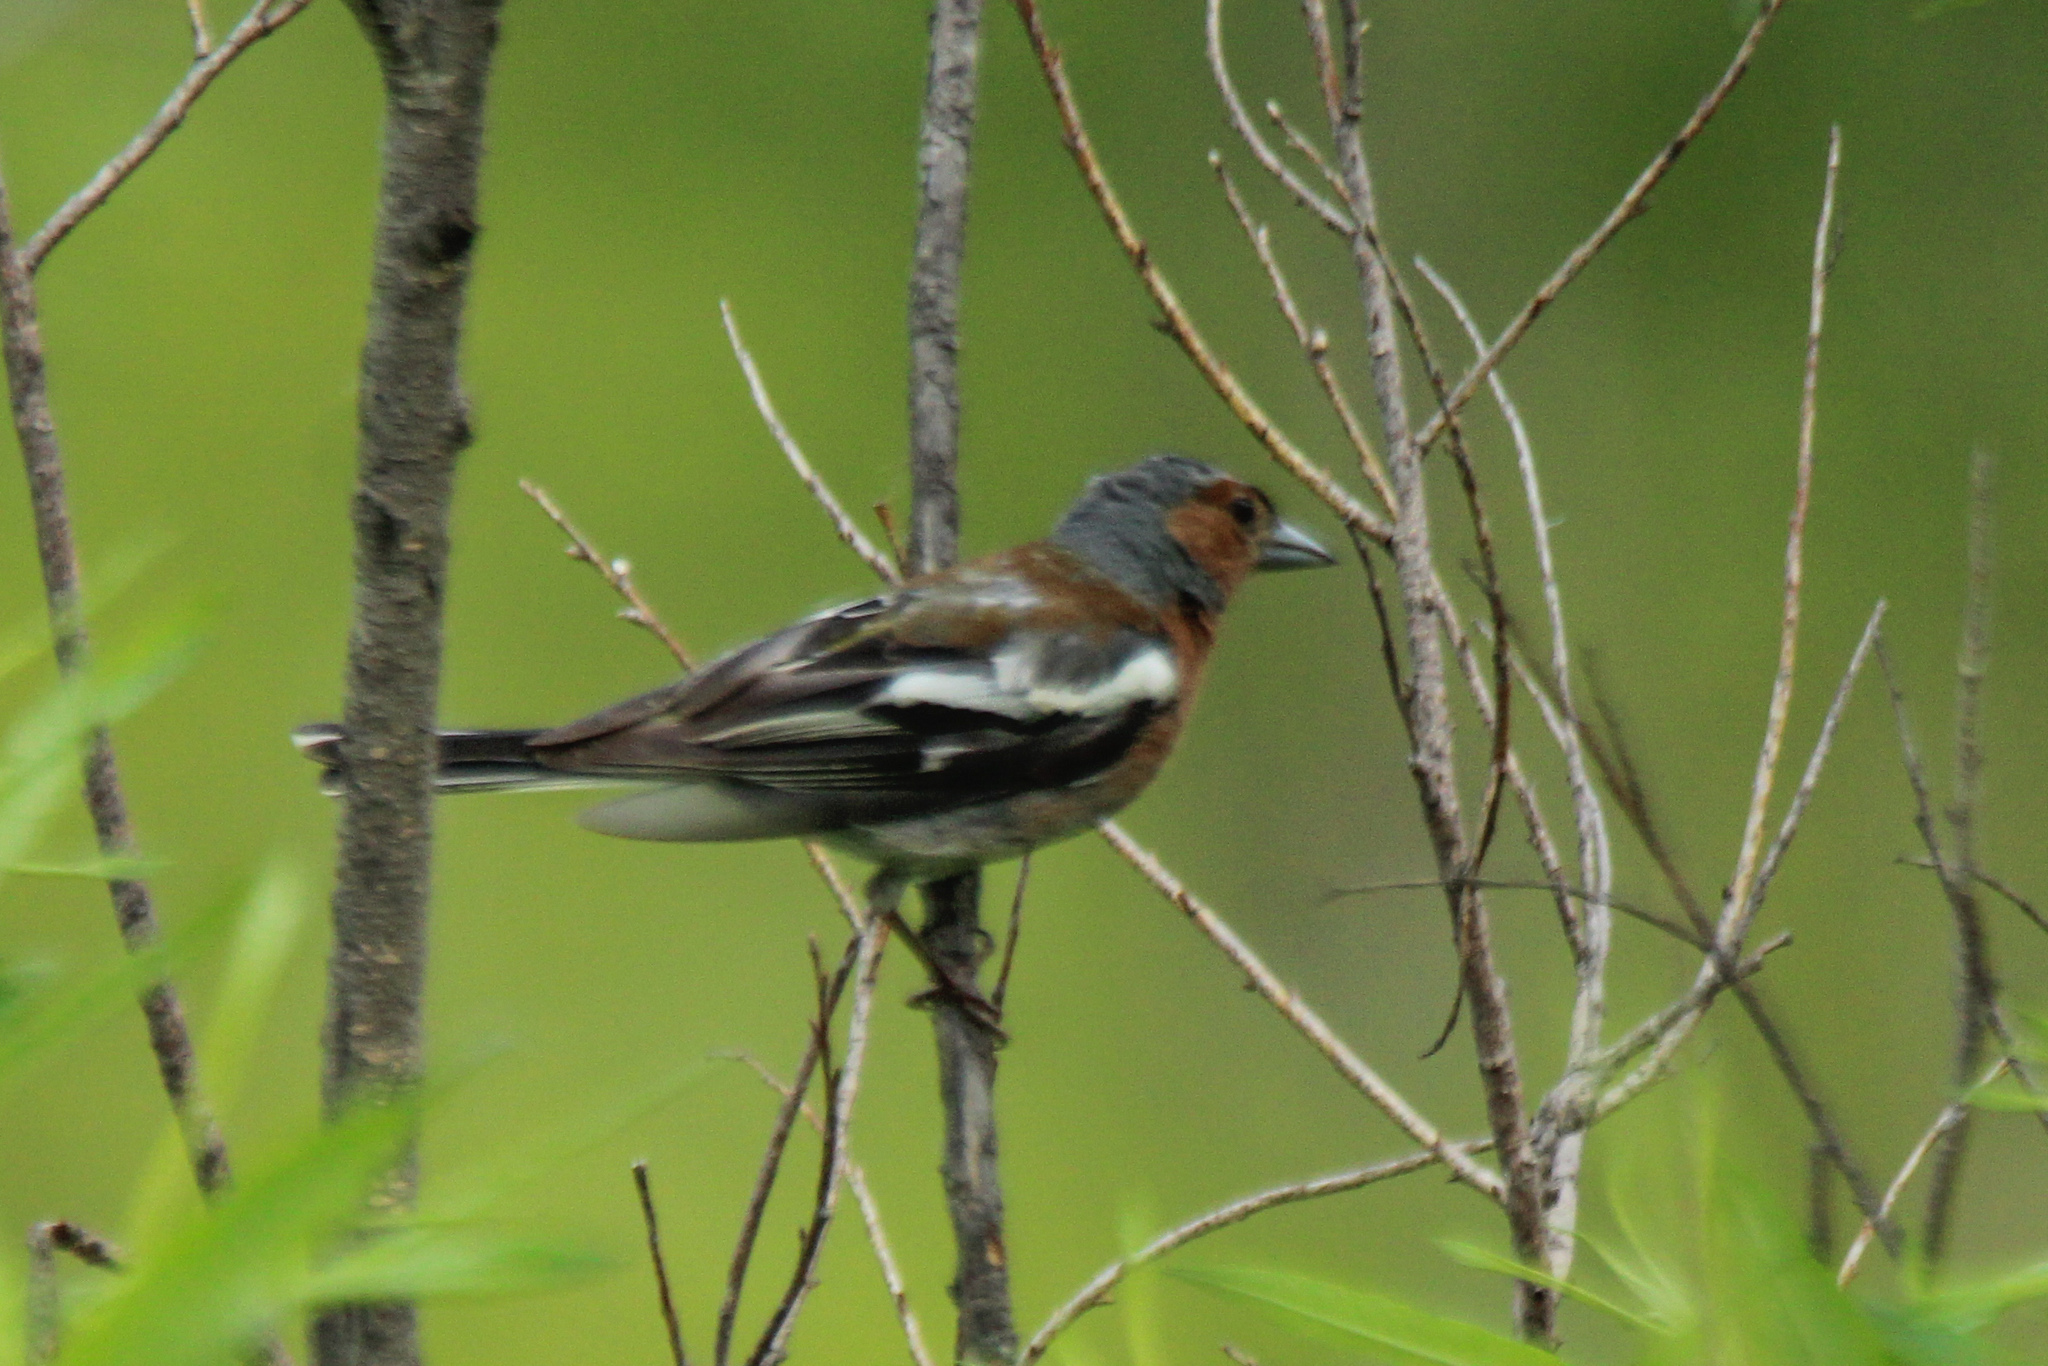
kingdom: Animalia
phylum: Chordata
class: Aves
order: Passeriformes
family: Fringillidae
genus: Fringilla
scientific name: Fringilla coelebs
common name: Common chaffinch
